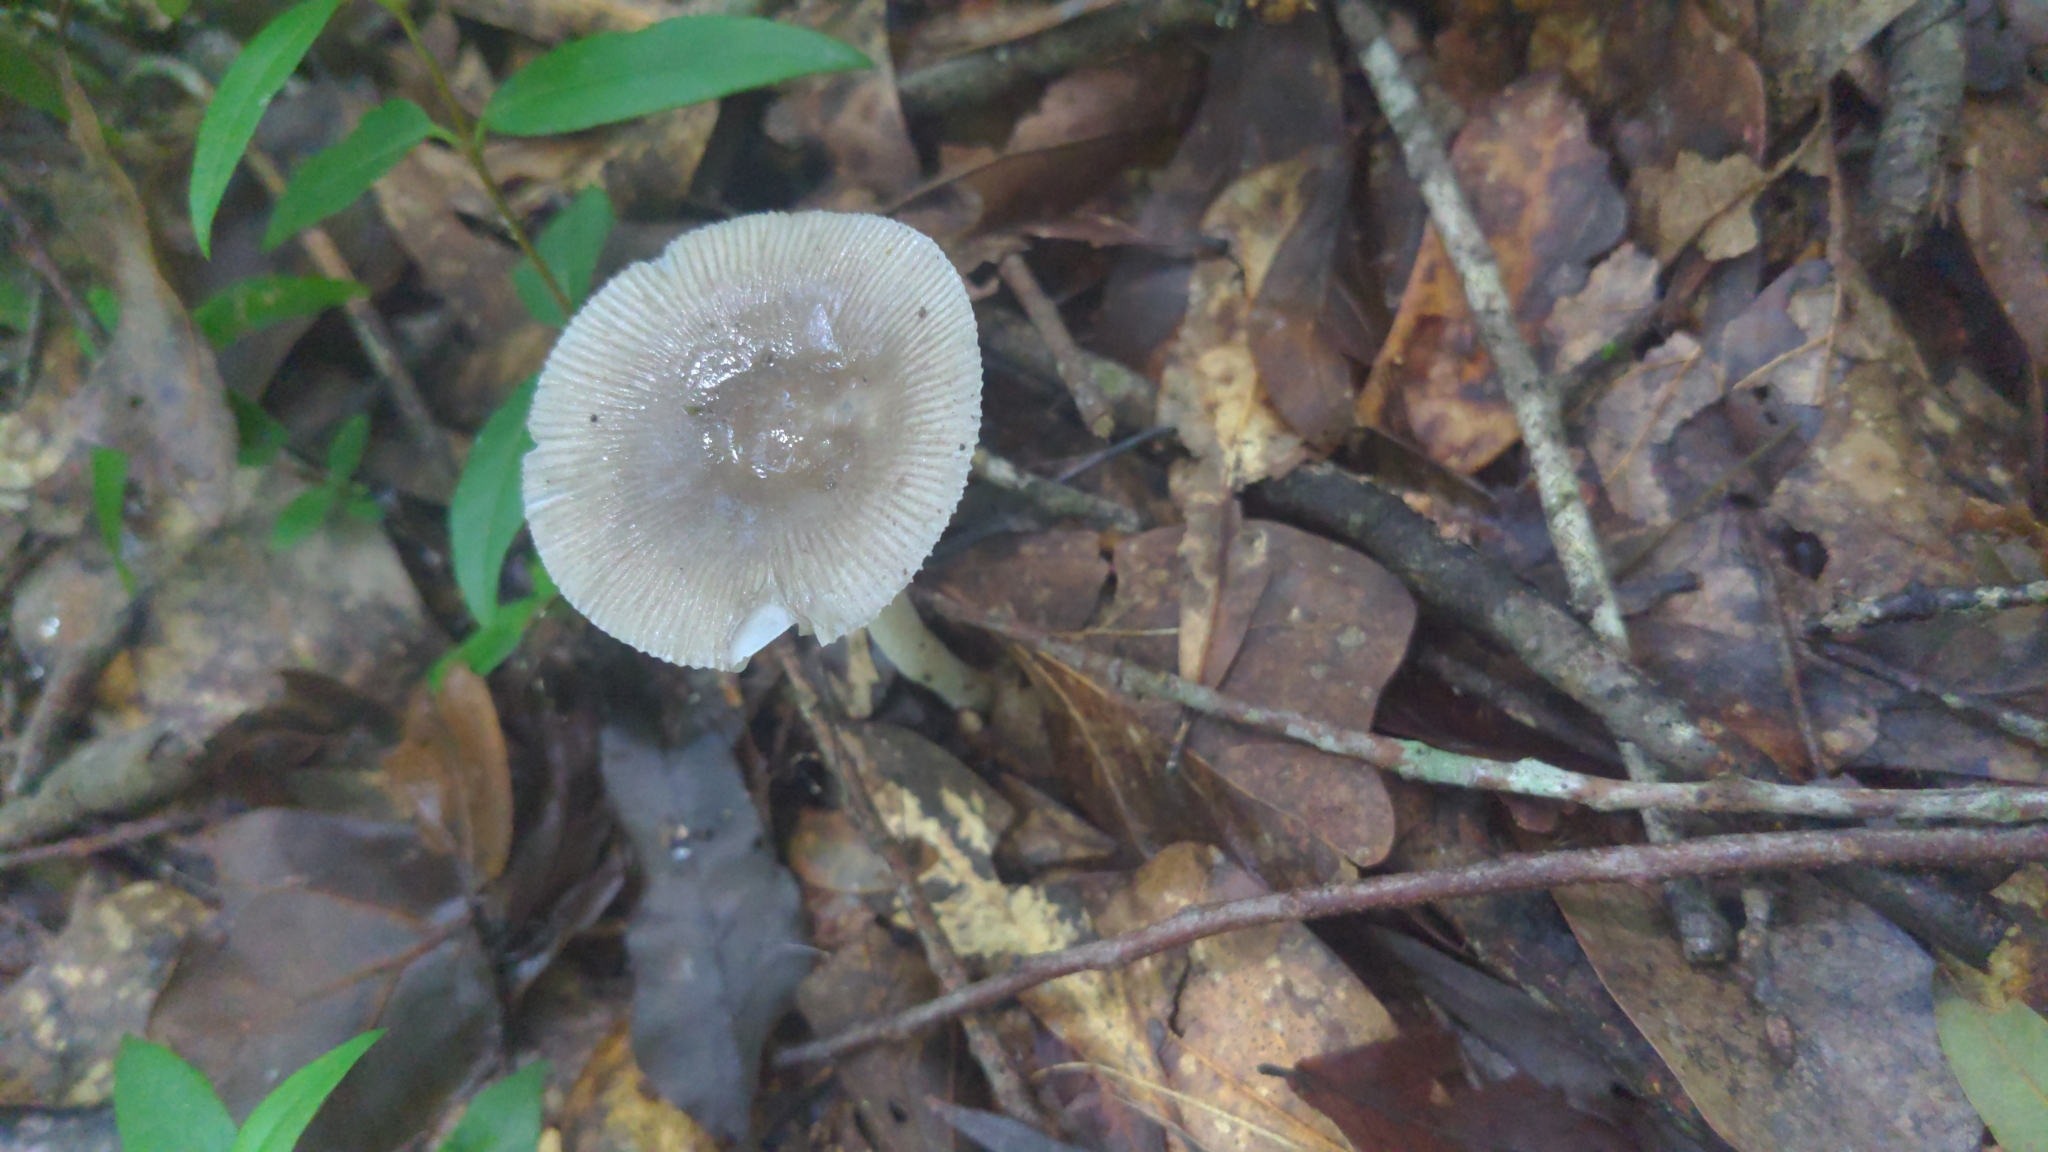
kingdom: Fungi
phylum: Basidiomycota
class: Agaricomycetes
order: Agaricales
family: Amanitaceae
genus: Amanita
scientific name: Amanita vaginata
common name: Grisette
